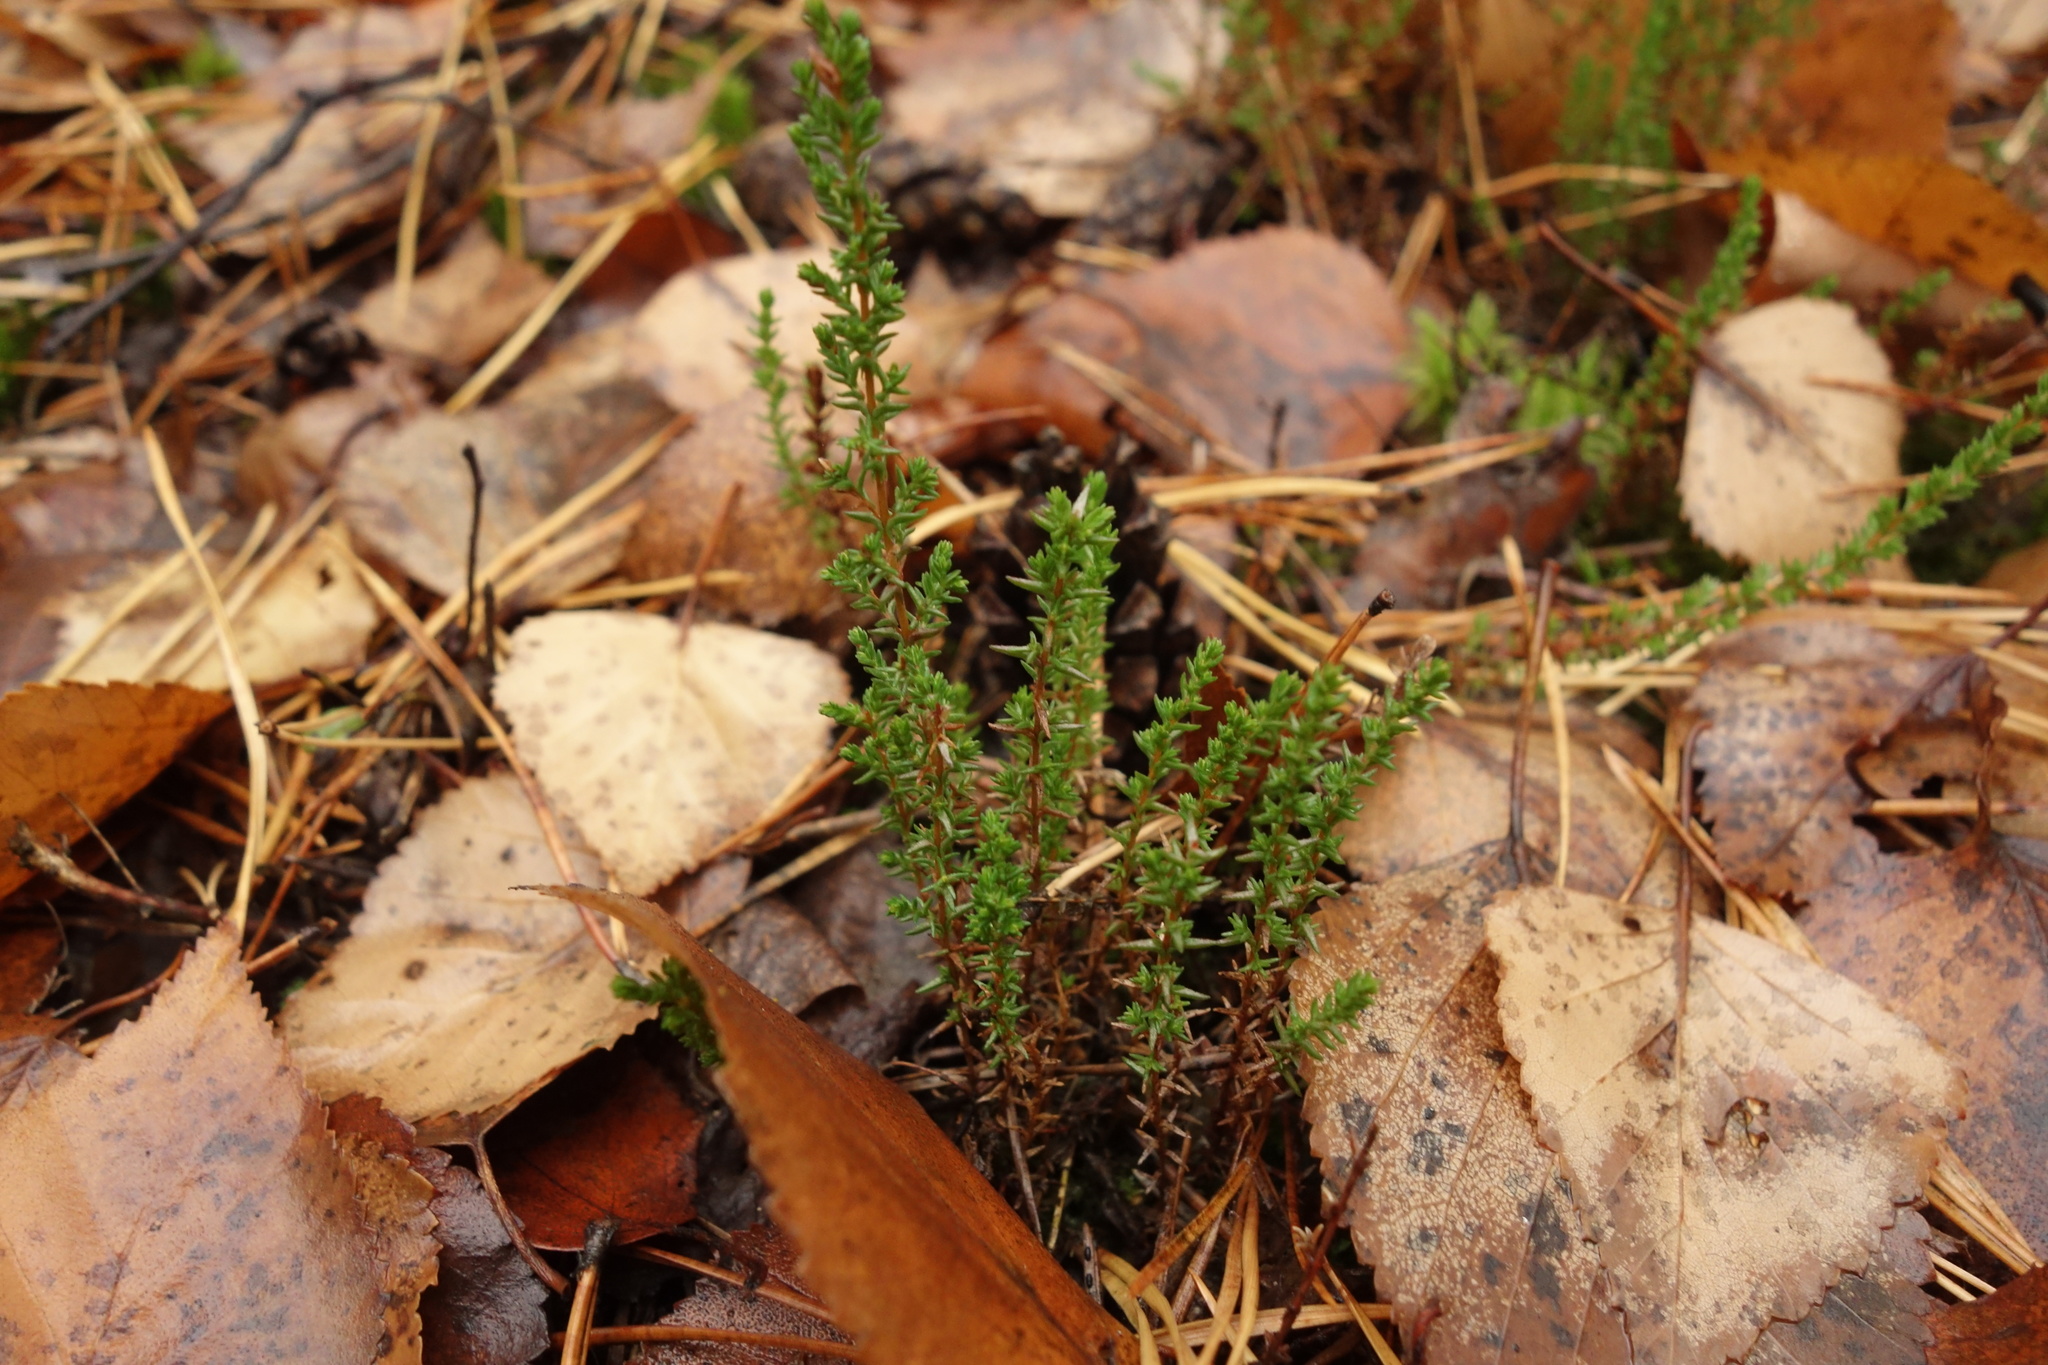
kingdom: Plantae
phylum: Tracheophyta
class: Magnoliopsida
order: Ericales
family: Ericaceae
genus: Calluna
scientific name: Calluna vulgaris
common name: Heather
